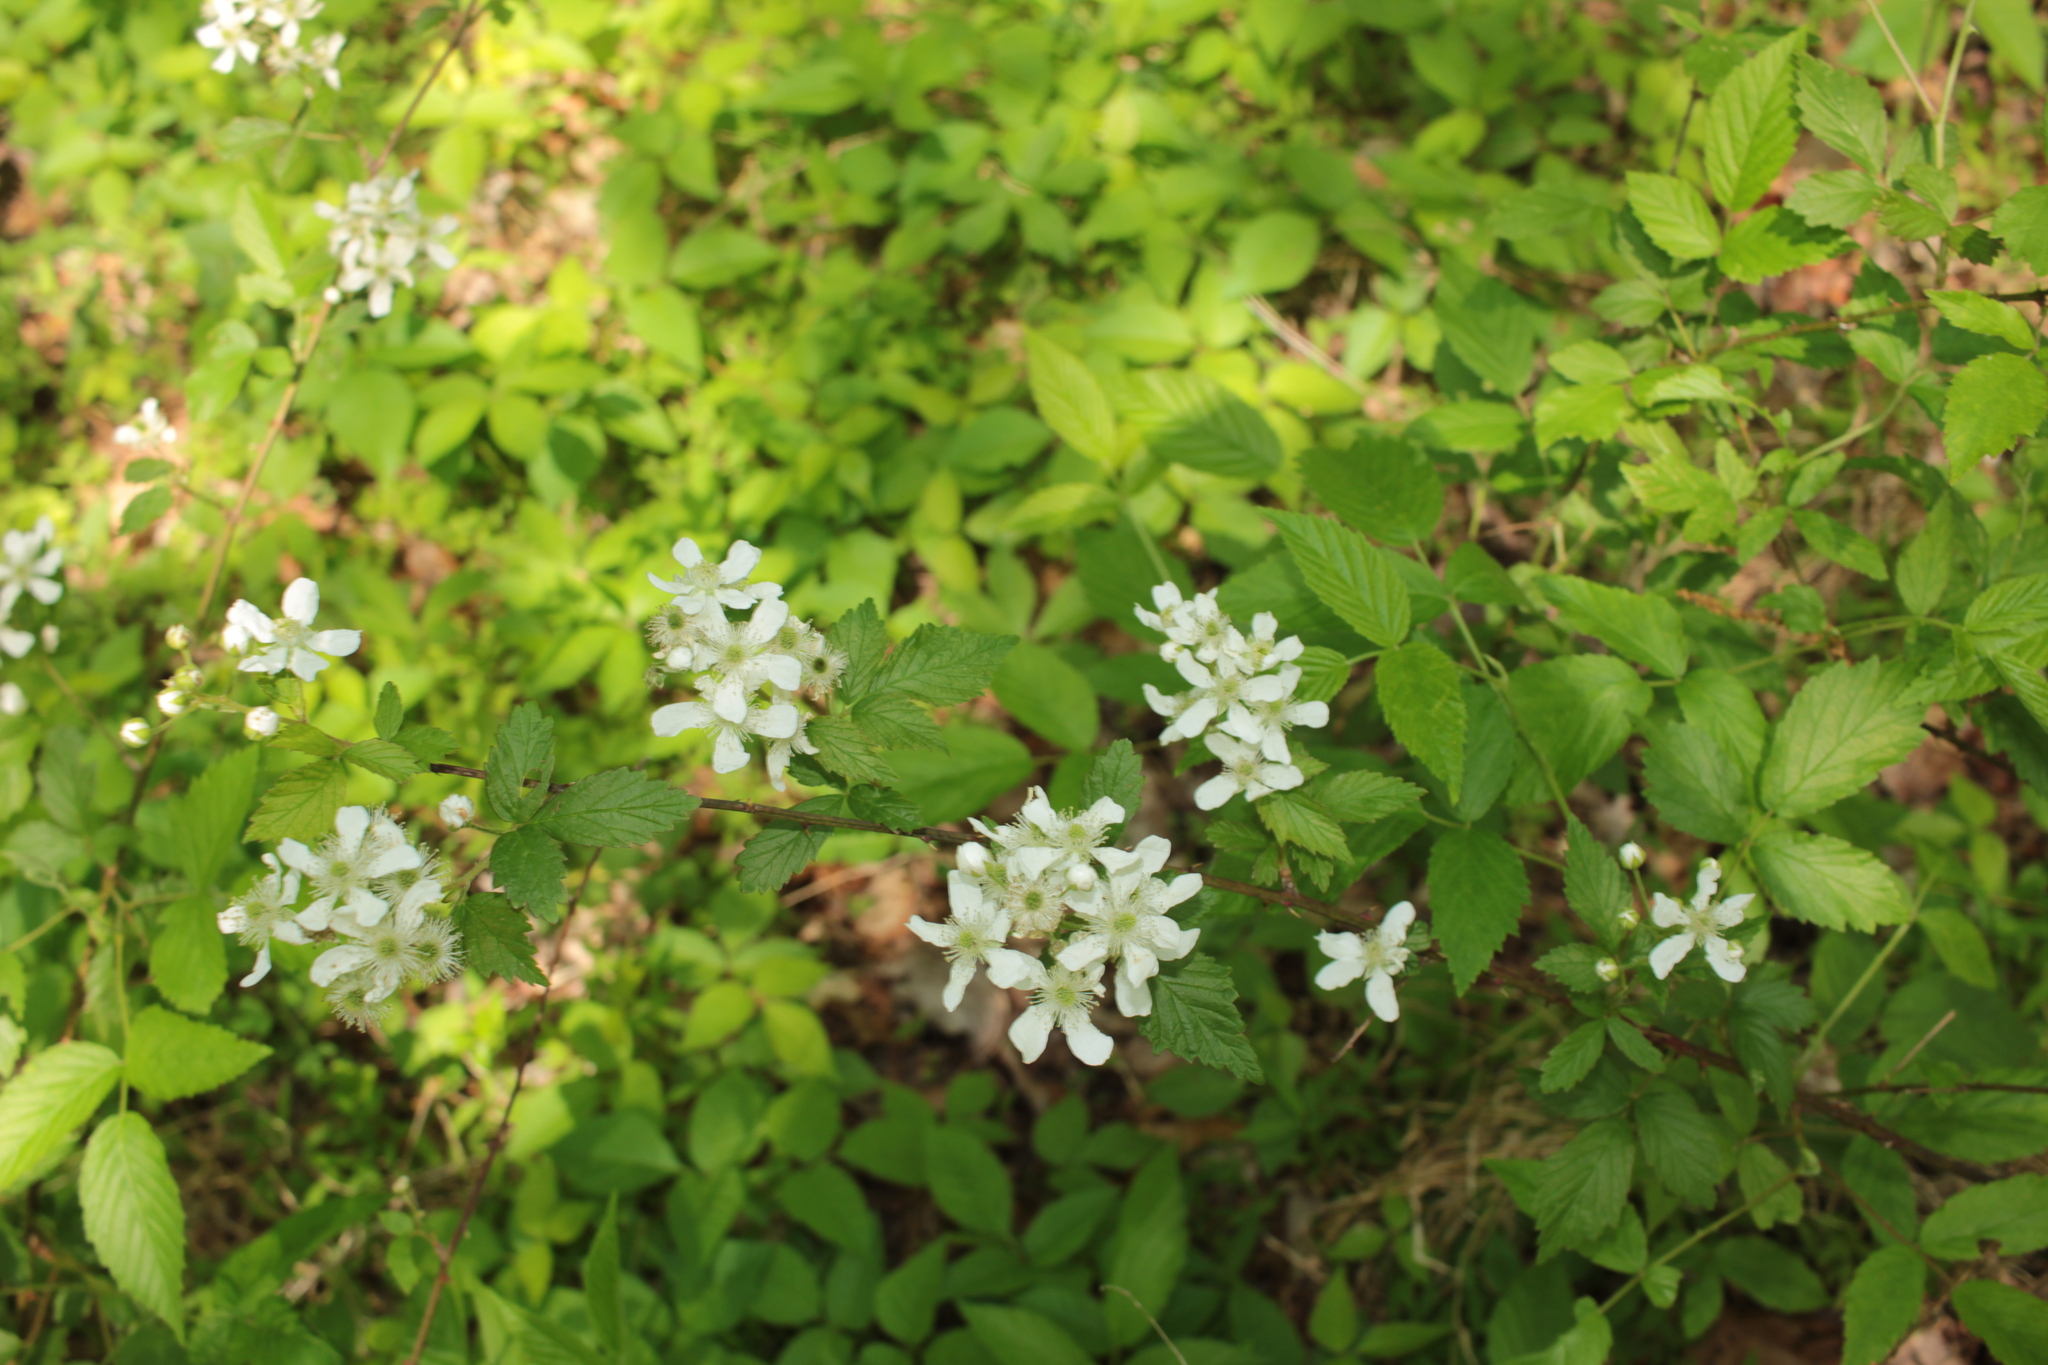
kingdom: Plantae
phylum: Tracheophyta
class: Magnoliopsida
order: Rosales
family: Rosaceae
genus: Rubus
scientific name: Rubus trivialis
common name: Southern dewberry
